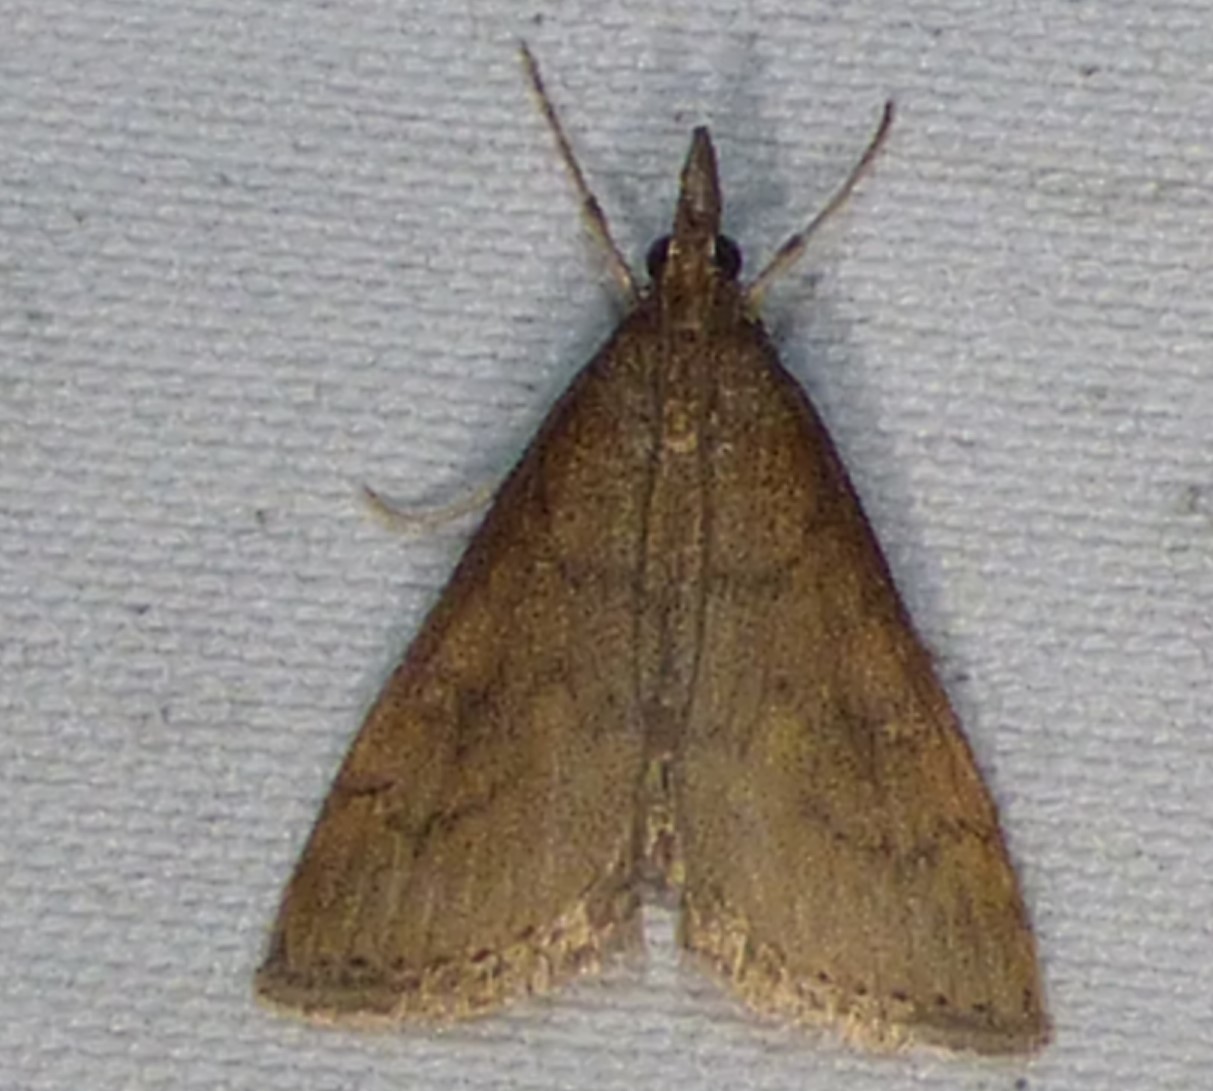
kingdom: Animalia
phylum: Arthropoda
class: Insecta
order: Lepidoptera
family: Crambidae
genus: Udea
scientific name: Udea rubigalis
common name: Celery leaftier moth
